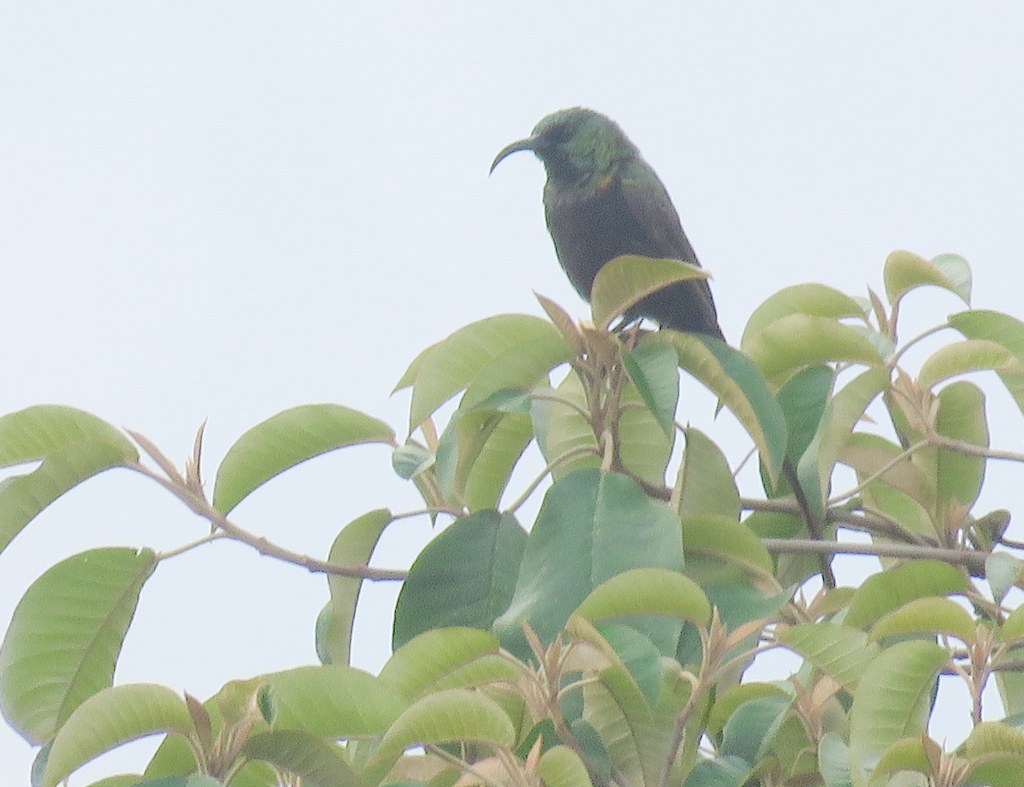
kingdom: Animalia
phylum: Chordata
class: Aves
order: Passeriformes
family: Nectariniidae
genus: Nectarinia
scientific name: Nectarinia kilimensis
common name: Bronzy sunbird
